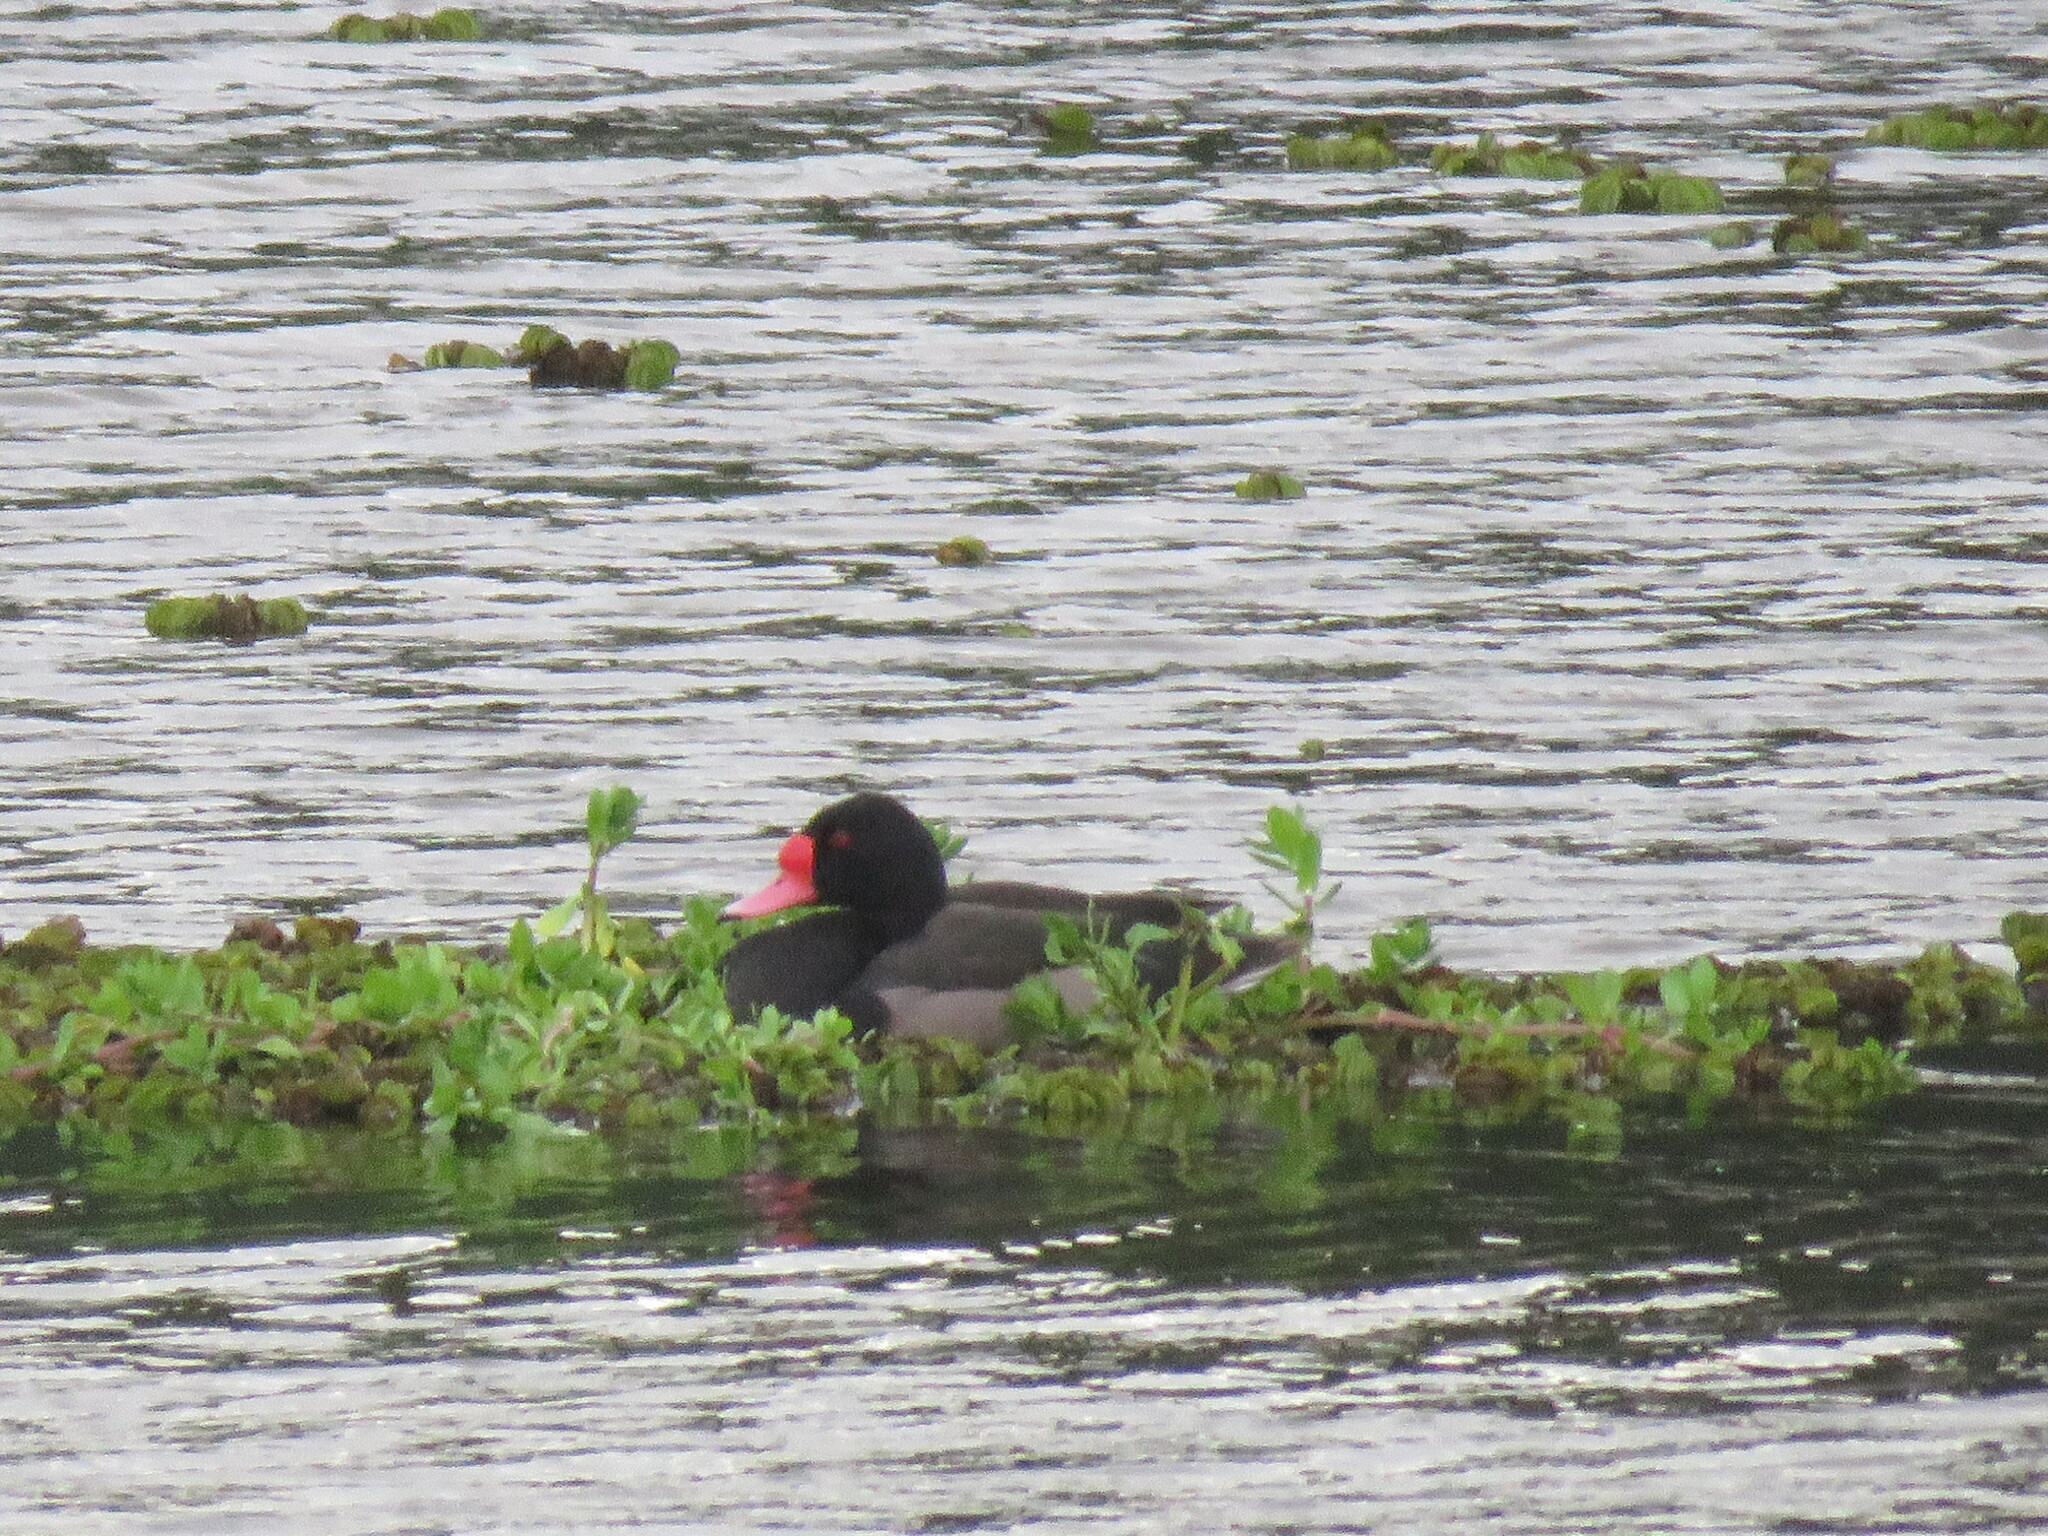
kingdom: Animalia
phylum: Chordata
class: Aves
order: Anseriformes
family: Anatidae
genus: Netta
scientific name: Netta peposaca
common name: Rosy-billed pochard
